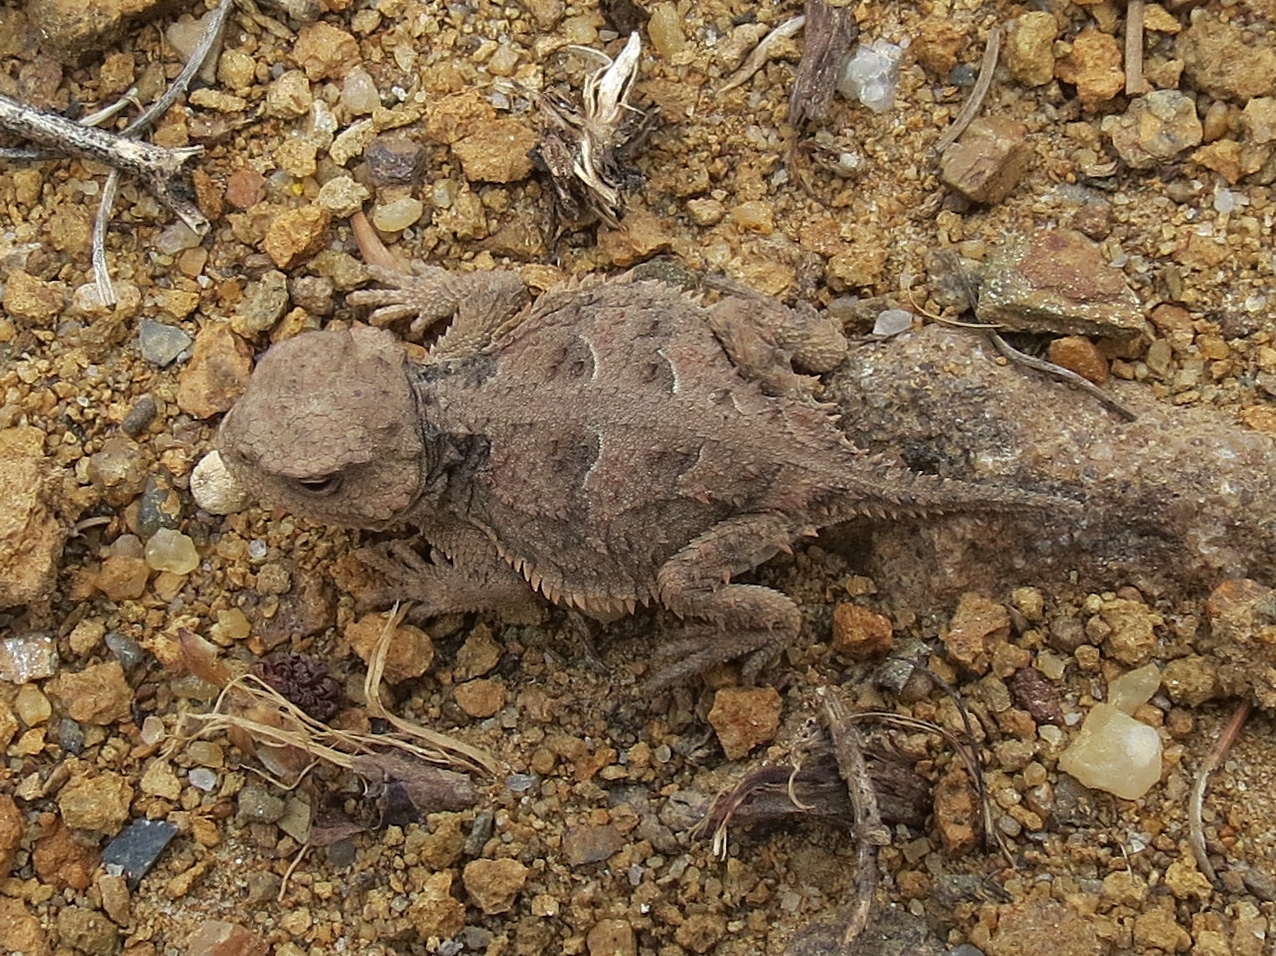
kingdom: Animalia
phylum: Chordata
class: Squamata
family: Phrynosomatidae
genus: Phrynosoma
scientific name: Phrynosoma hernandesi
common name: Greater short-horned lizard
